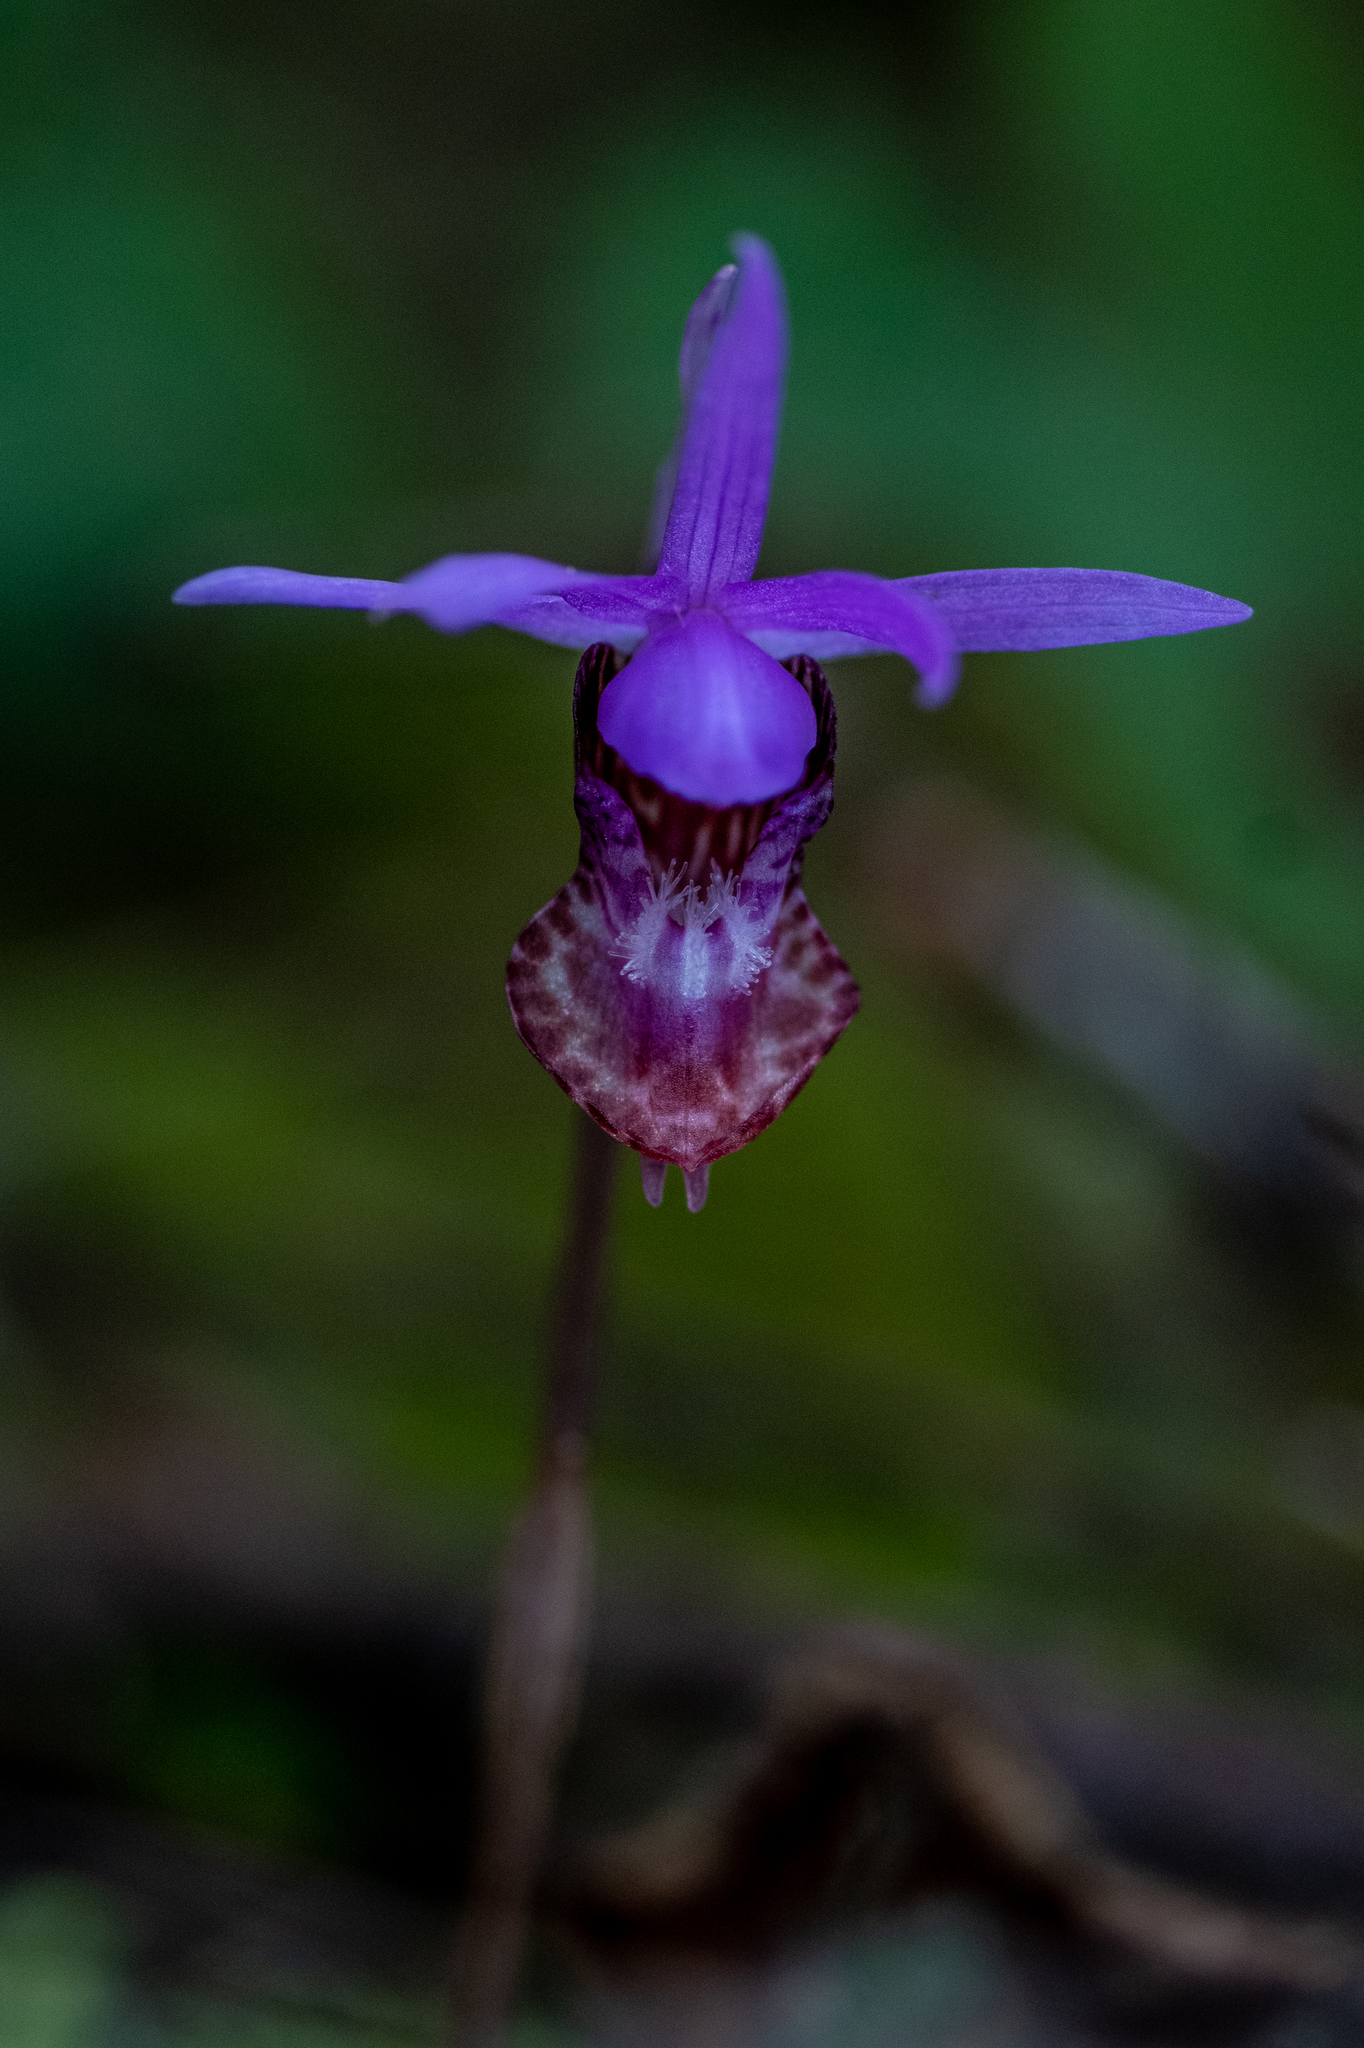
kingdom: Plantae
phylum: Tracheophyta
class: Liliopsida
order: Asparagales
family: Orchidaceae
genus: Calypso
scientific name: Calypso bulbosa
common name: Calypso
